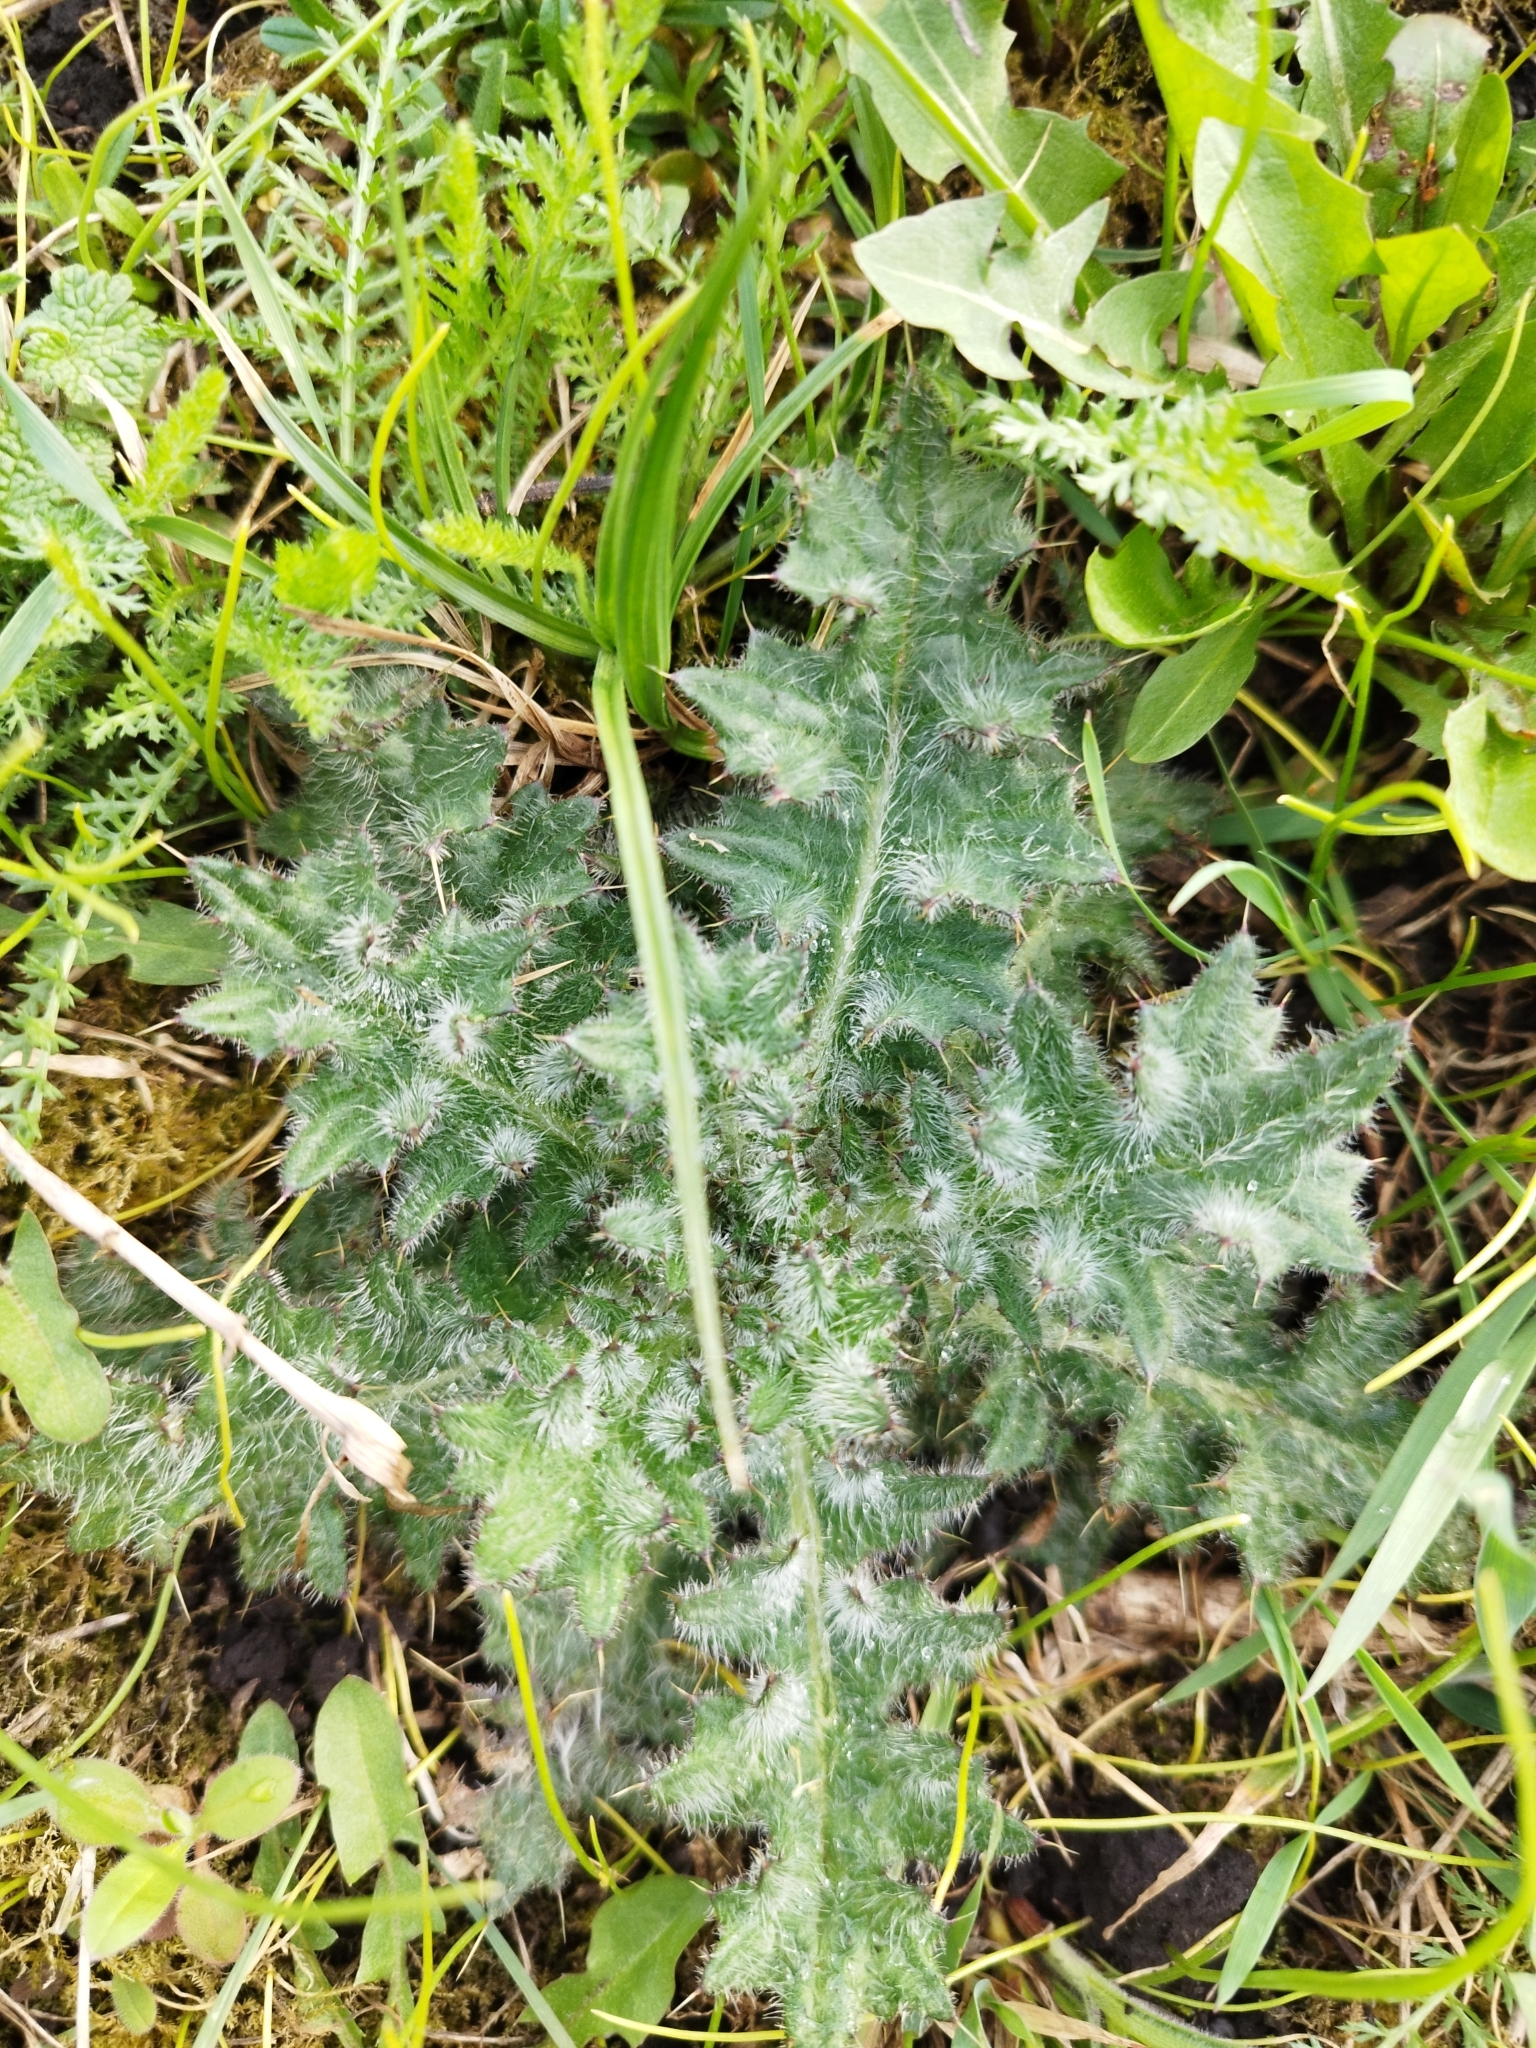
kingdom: Plantae
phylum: Tracheophyta
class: Magnoliopsida
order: Asterales
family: Asteraceae
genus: Cirsium
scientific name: Cirsium vulgare
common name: Bull thistle
